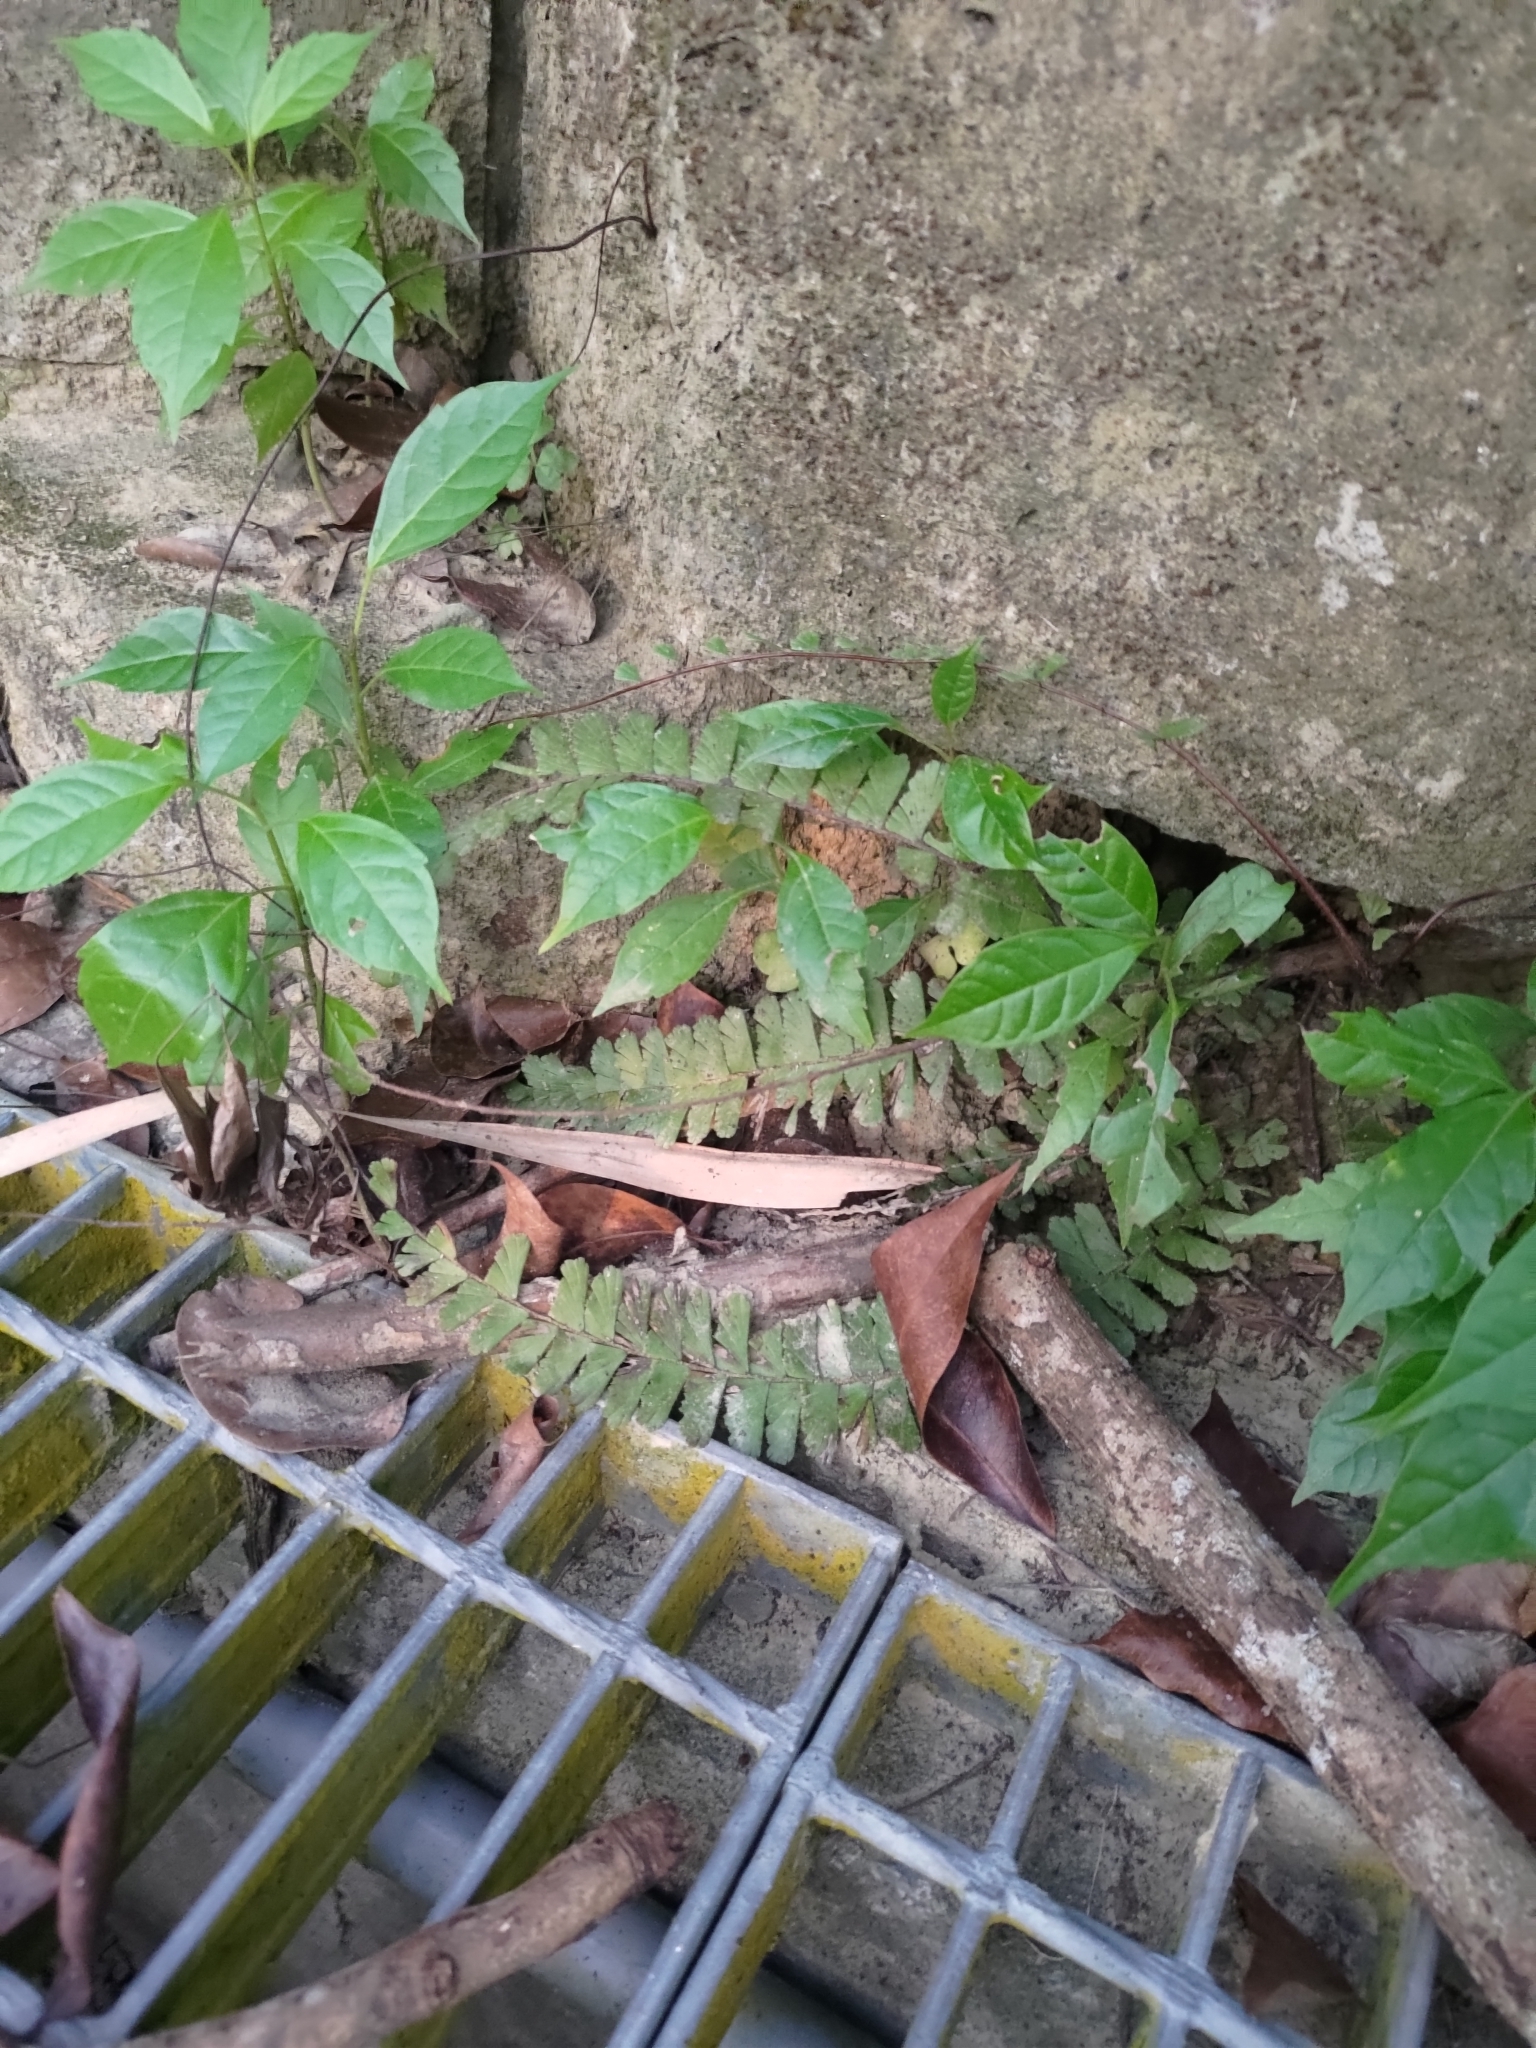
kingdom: Plantae
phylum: Tracheophyta
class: Polypodiopsida
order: Polypodiales
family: Pteridaceae
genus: Adiantum
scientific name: Adiantum caudatum
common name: Tailed maidenhair
